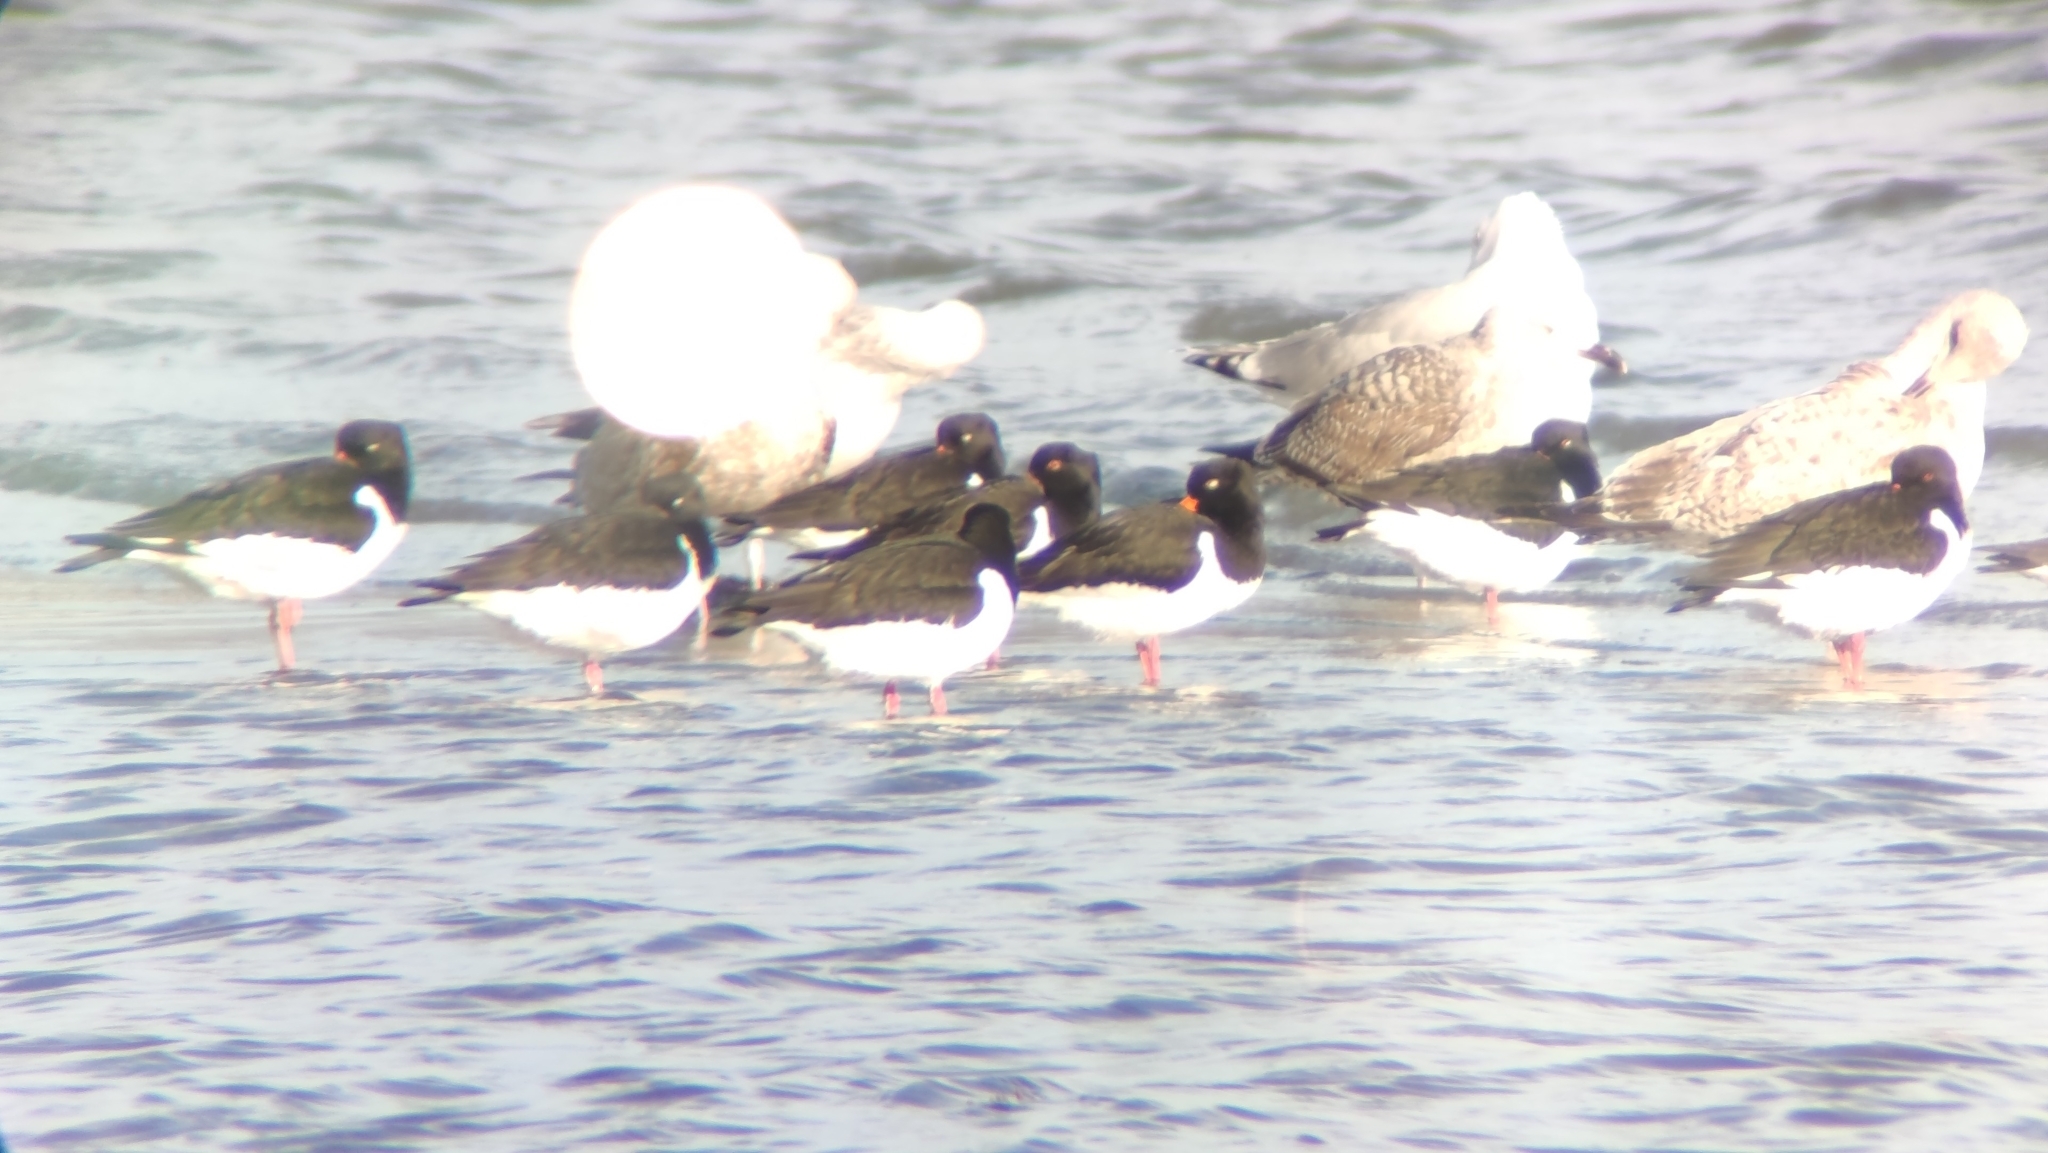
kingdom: Animalia
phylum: Chordata
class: Aves
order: Charadriiformes
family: Haematopodidae
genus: Haematopus
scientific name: Haematopus ostralegus
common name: Eurasian oystercatcher
